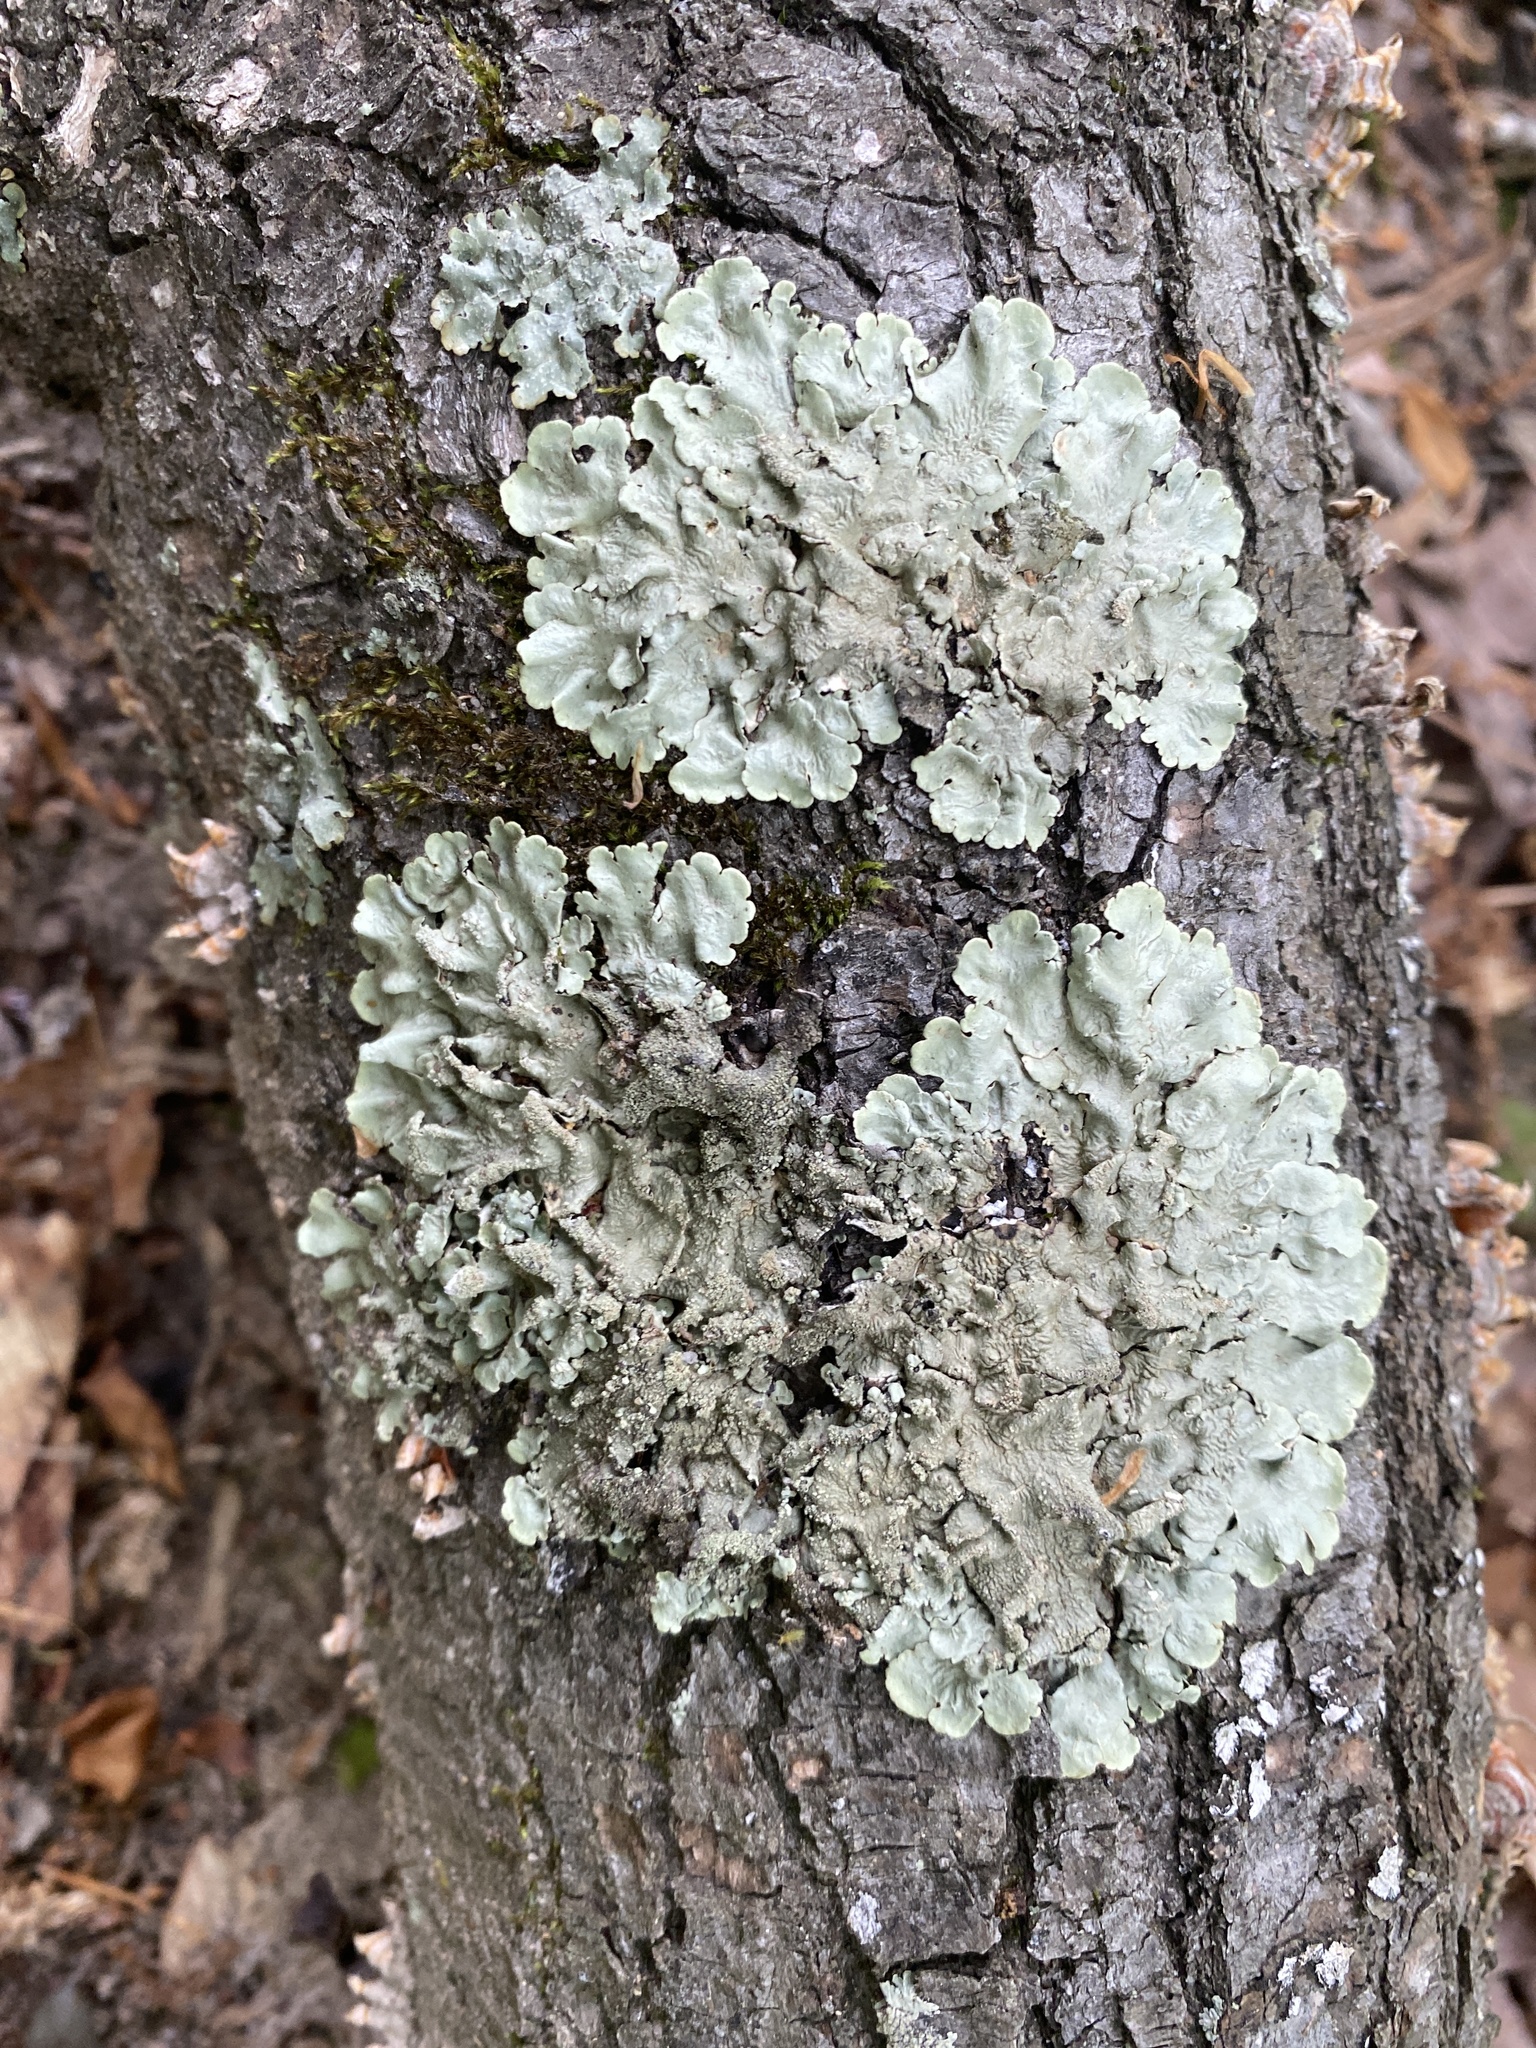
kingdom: Fungi
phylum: Ascomycota
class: Lecanoromycetes
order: Lecanorales
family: Parmeliaceae
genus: Flavoparmelia
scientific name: Flavoparmelia caperata
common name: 40-mile per hour lichen
